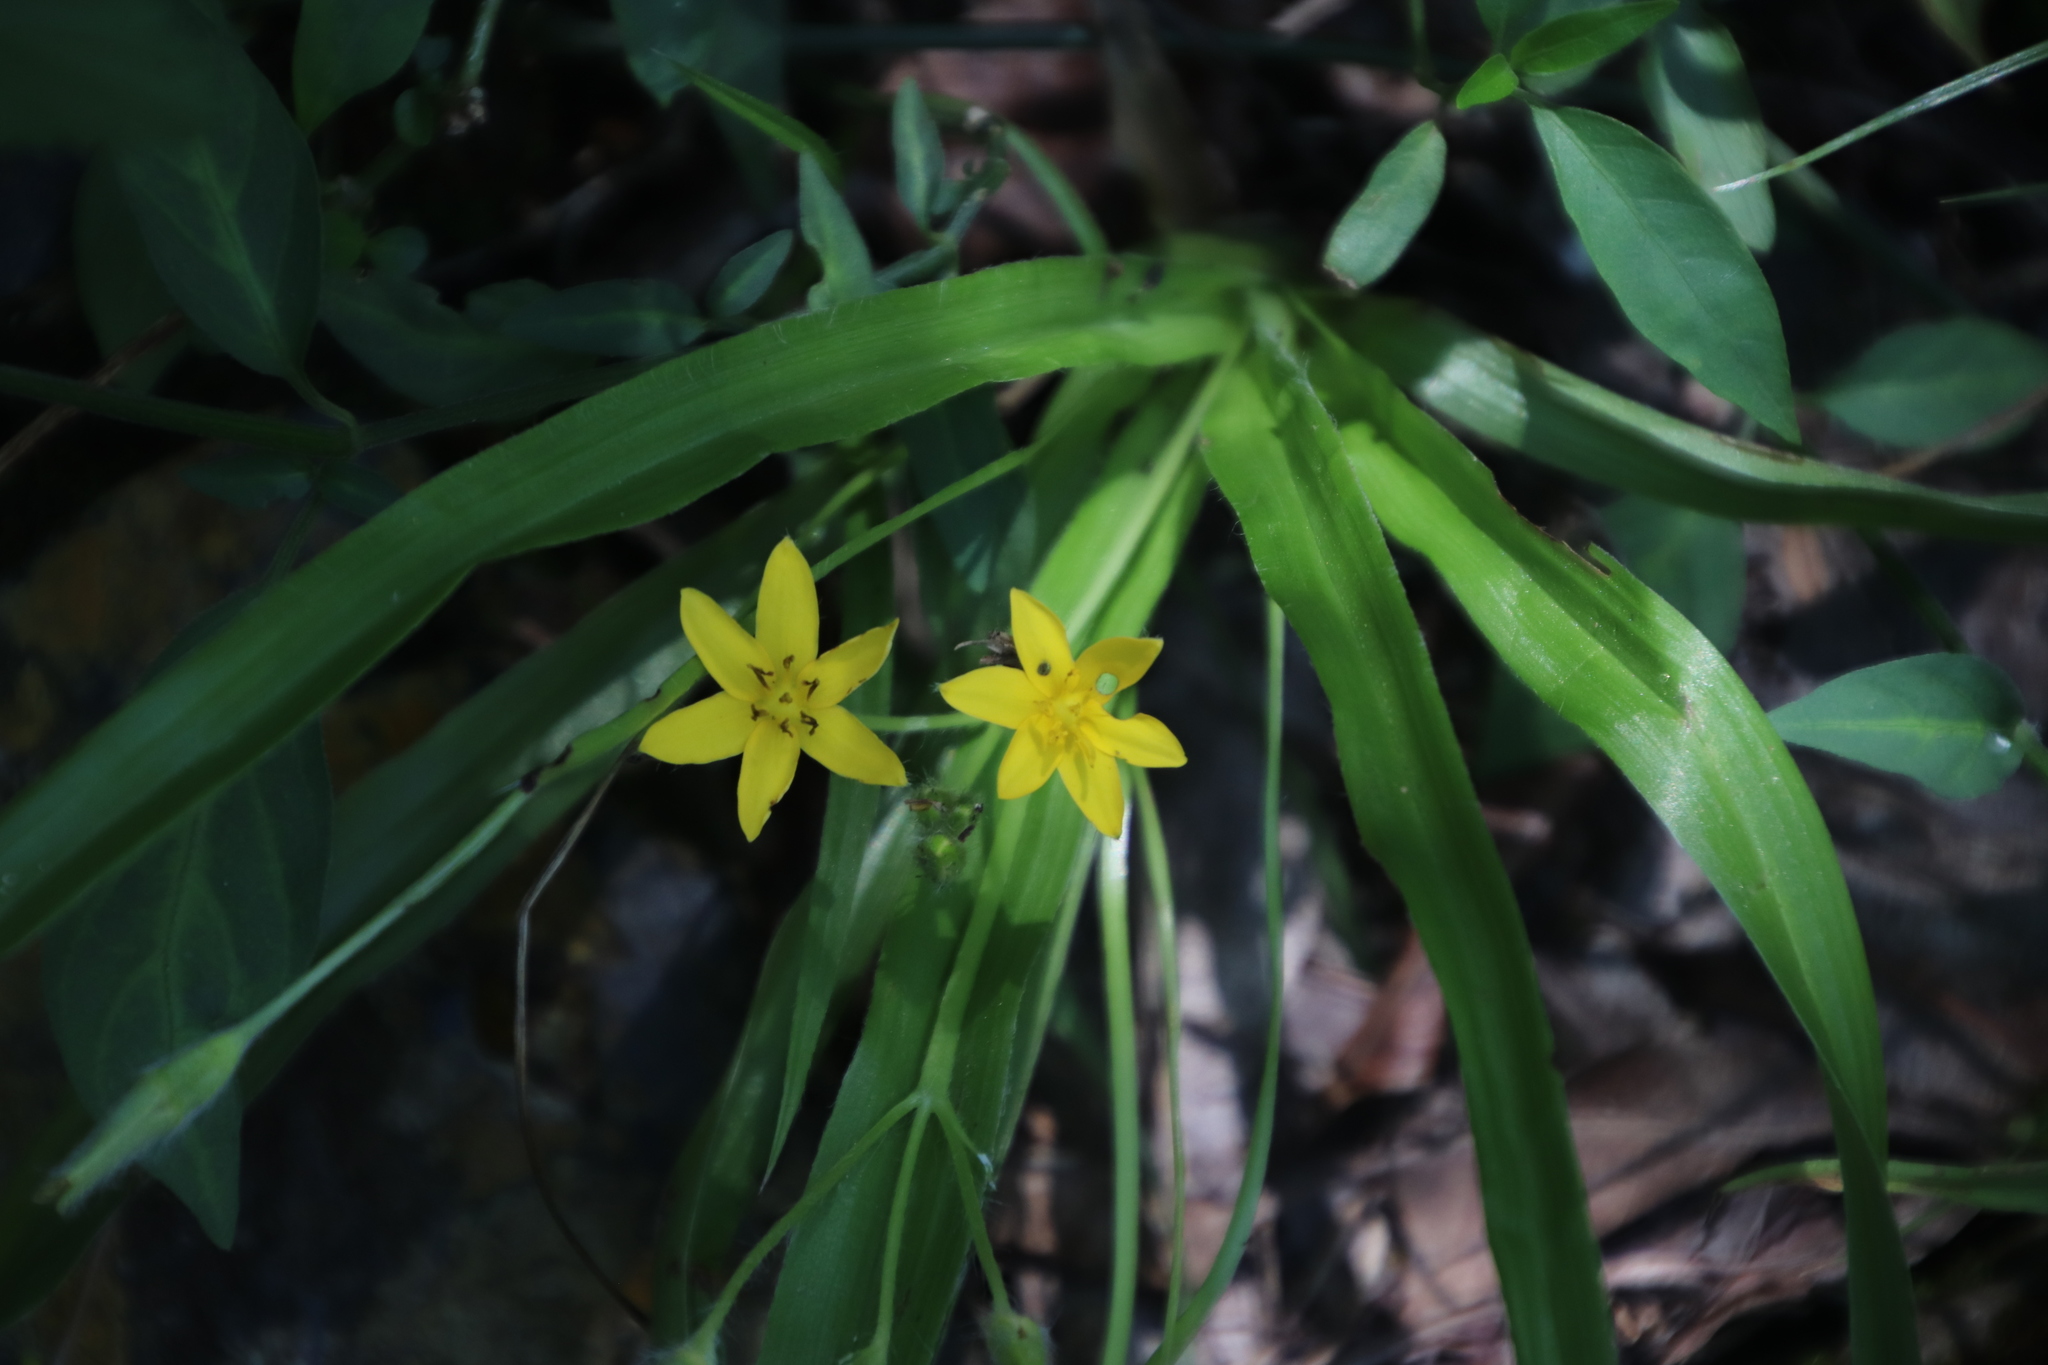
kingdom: Plantae
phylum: Tracheophyta
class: Liliopsida
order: Asparagales
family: Hypoxidaceae
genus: Hypoxis
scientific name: Hypoxis angustifolia
